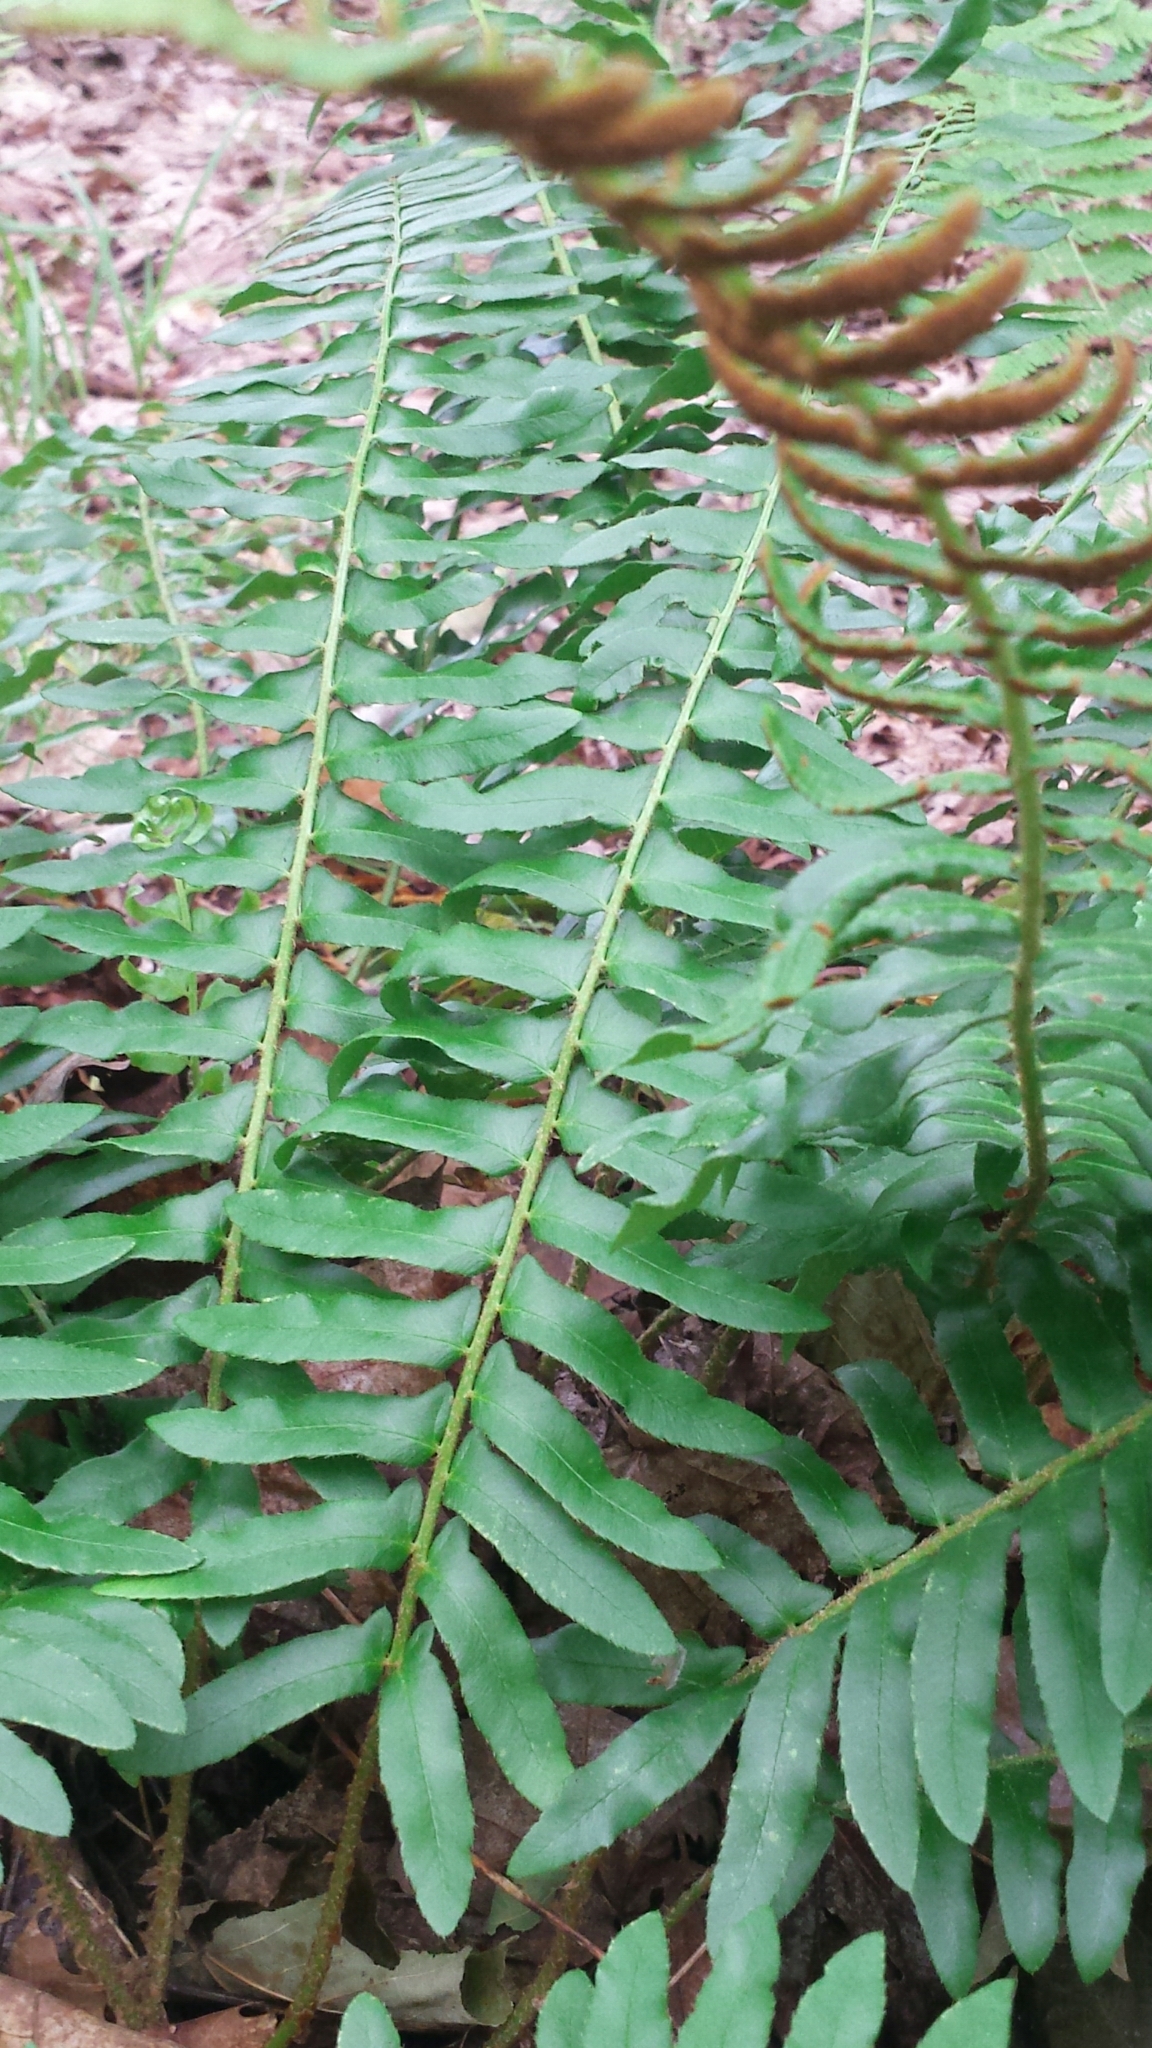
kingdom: Plantae
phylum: Tracheophyta
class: Polypodiopsida
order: Polypodiales
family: Dryopteridaceae
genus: Polystichum
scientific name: Polystichum acrostichoides
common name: Christmas fern
